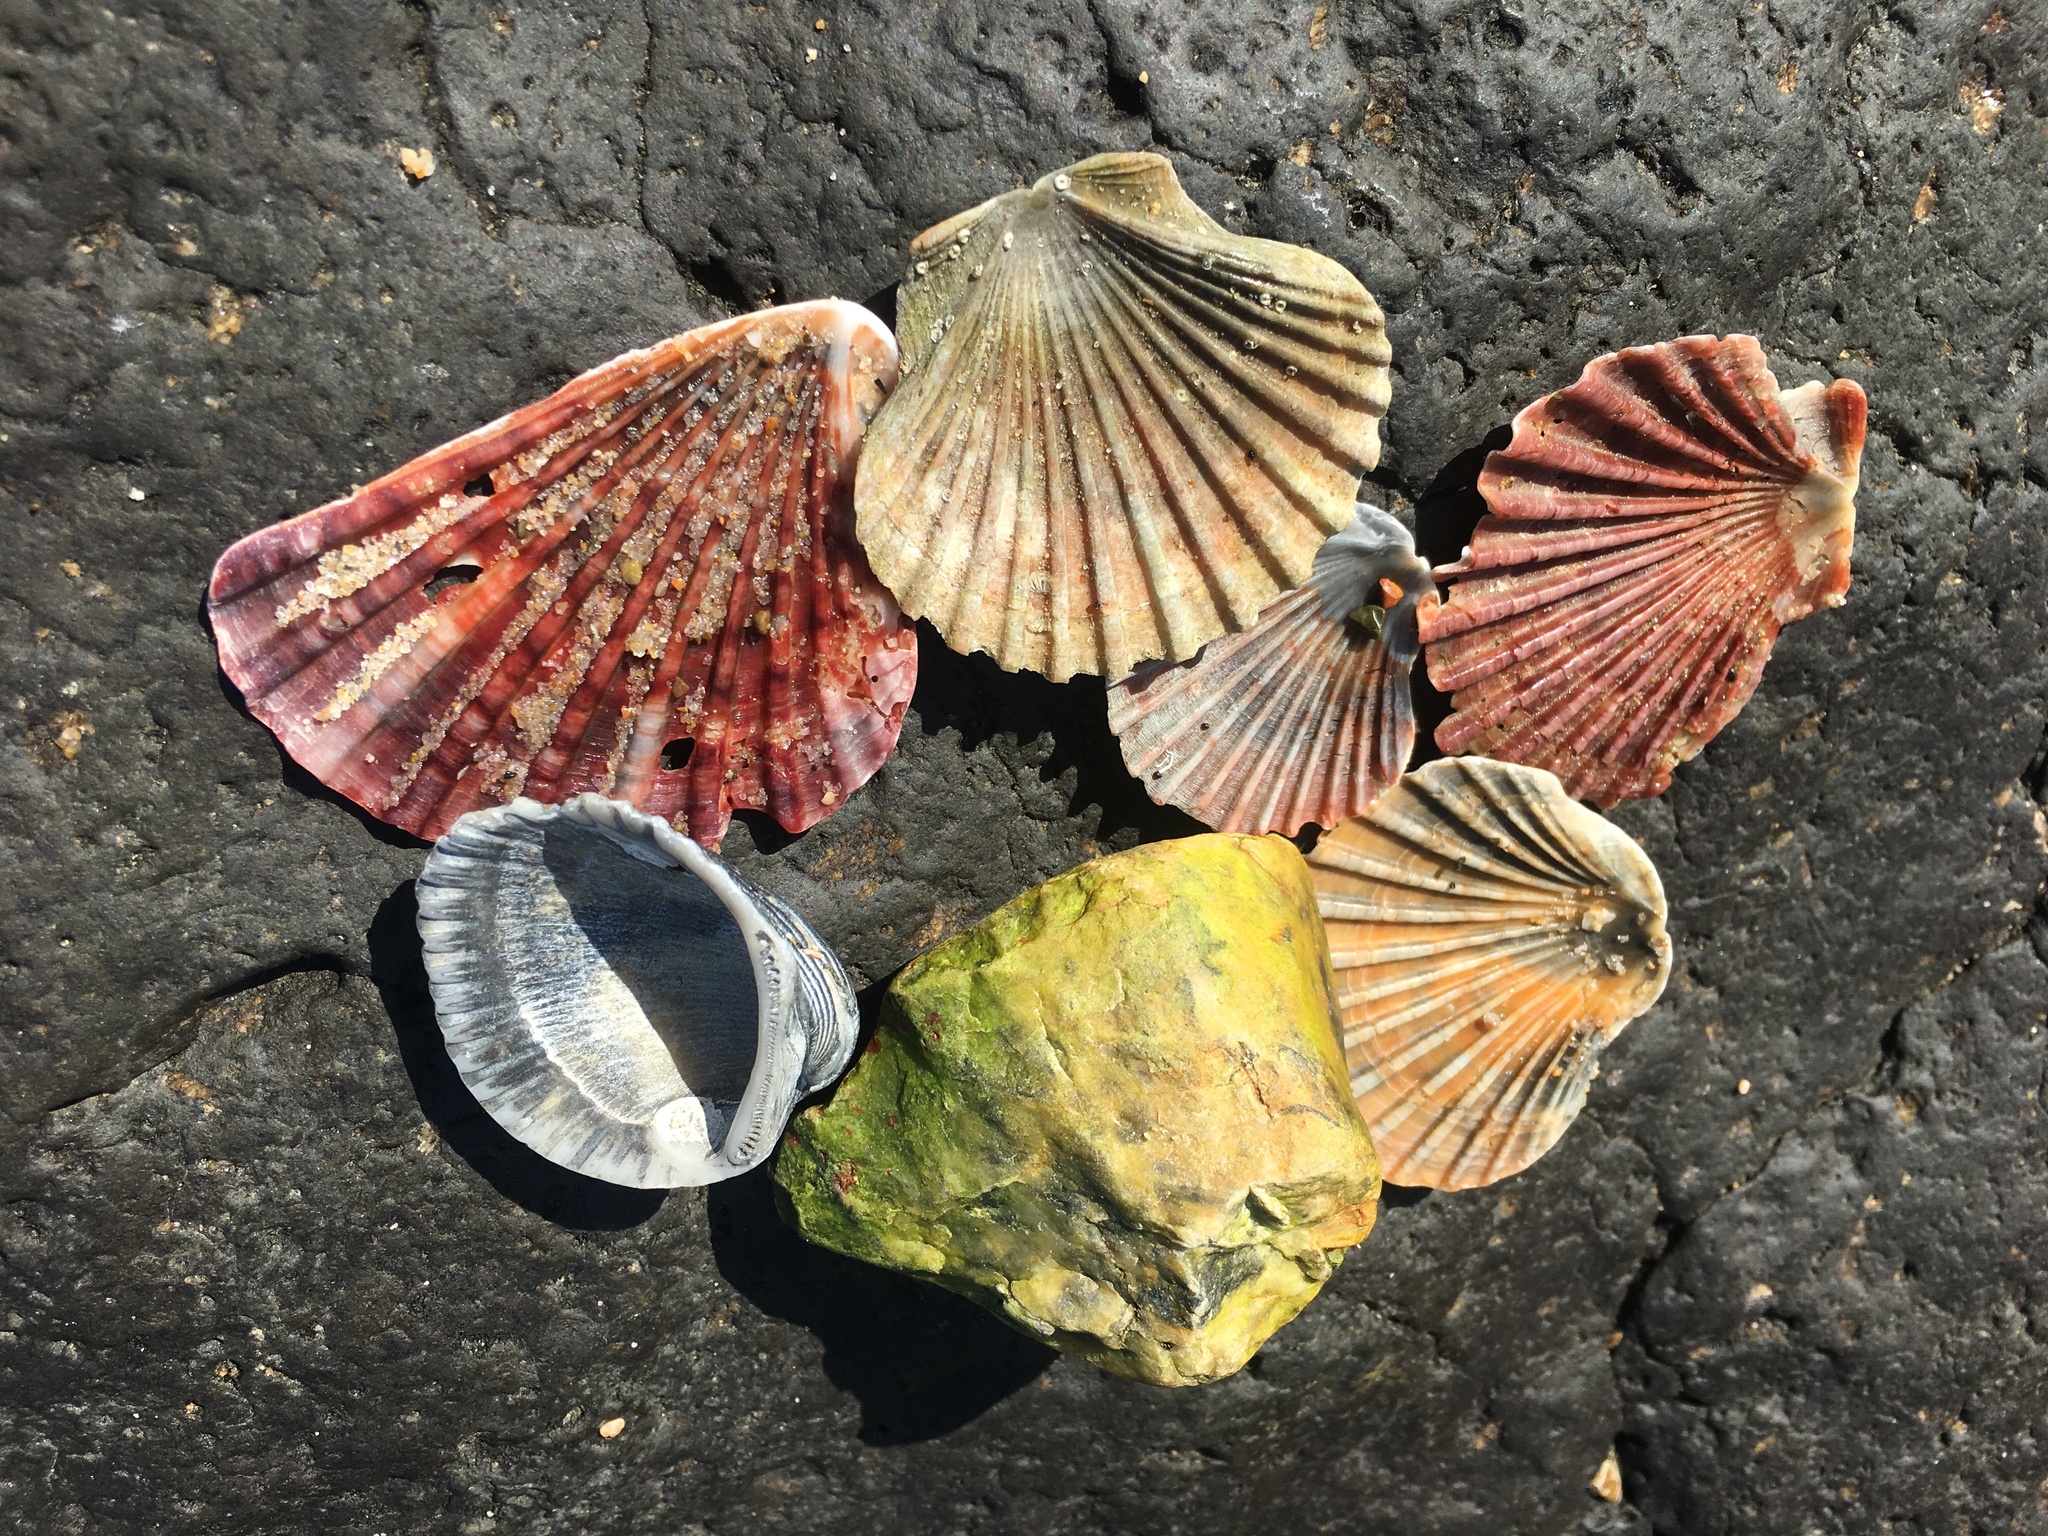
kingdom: Animalia
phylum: Mollusca
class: Bivalvia
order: Pectinida
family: Pectinidae
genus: Pecten
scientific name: Pecten fumatus
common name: Australian scallop
